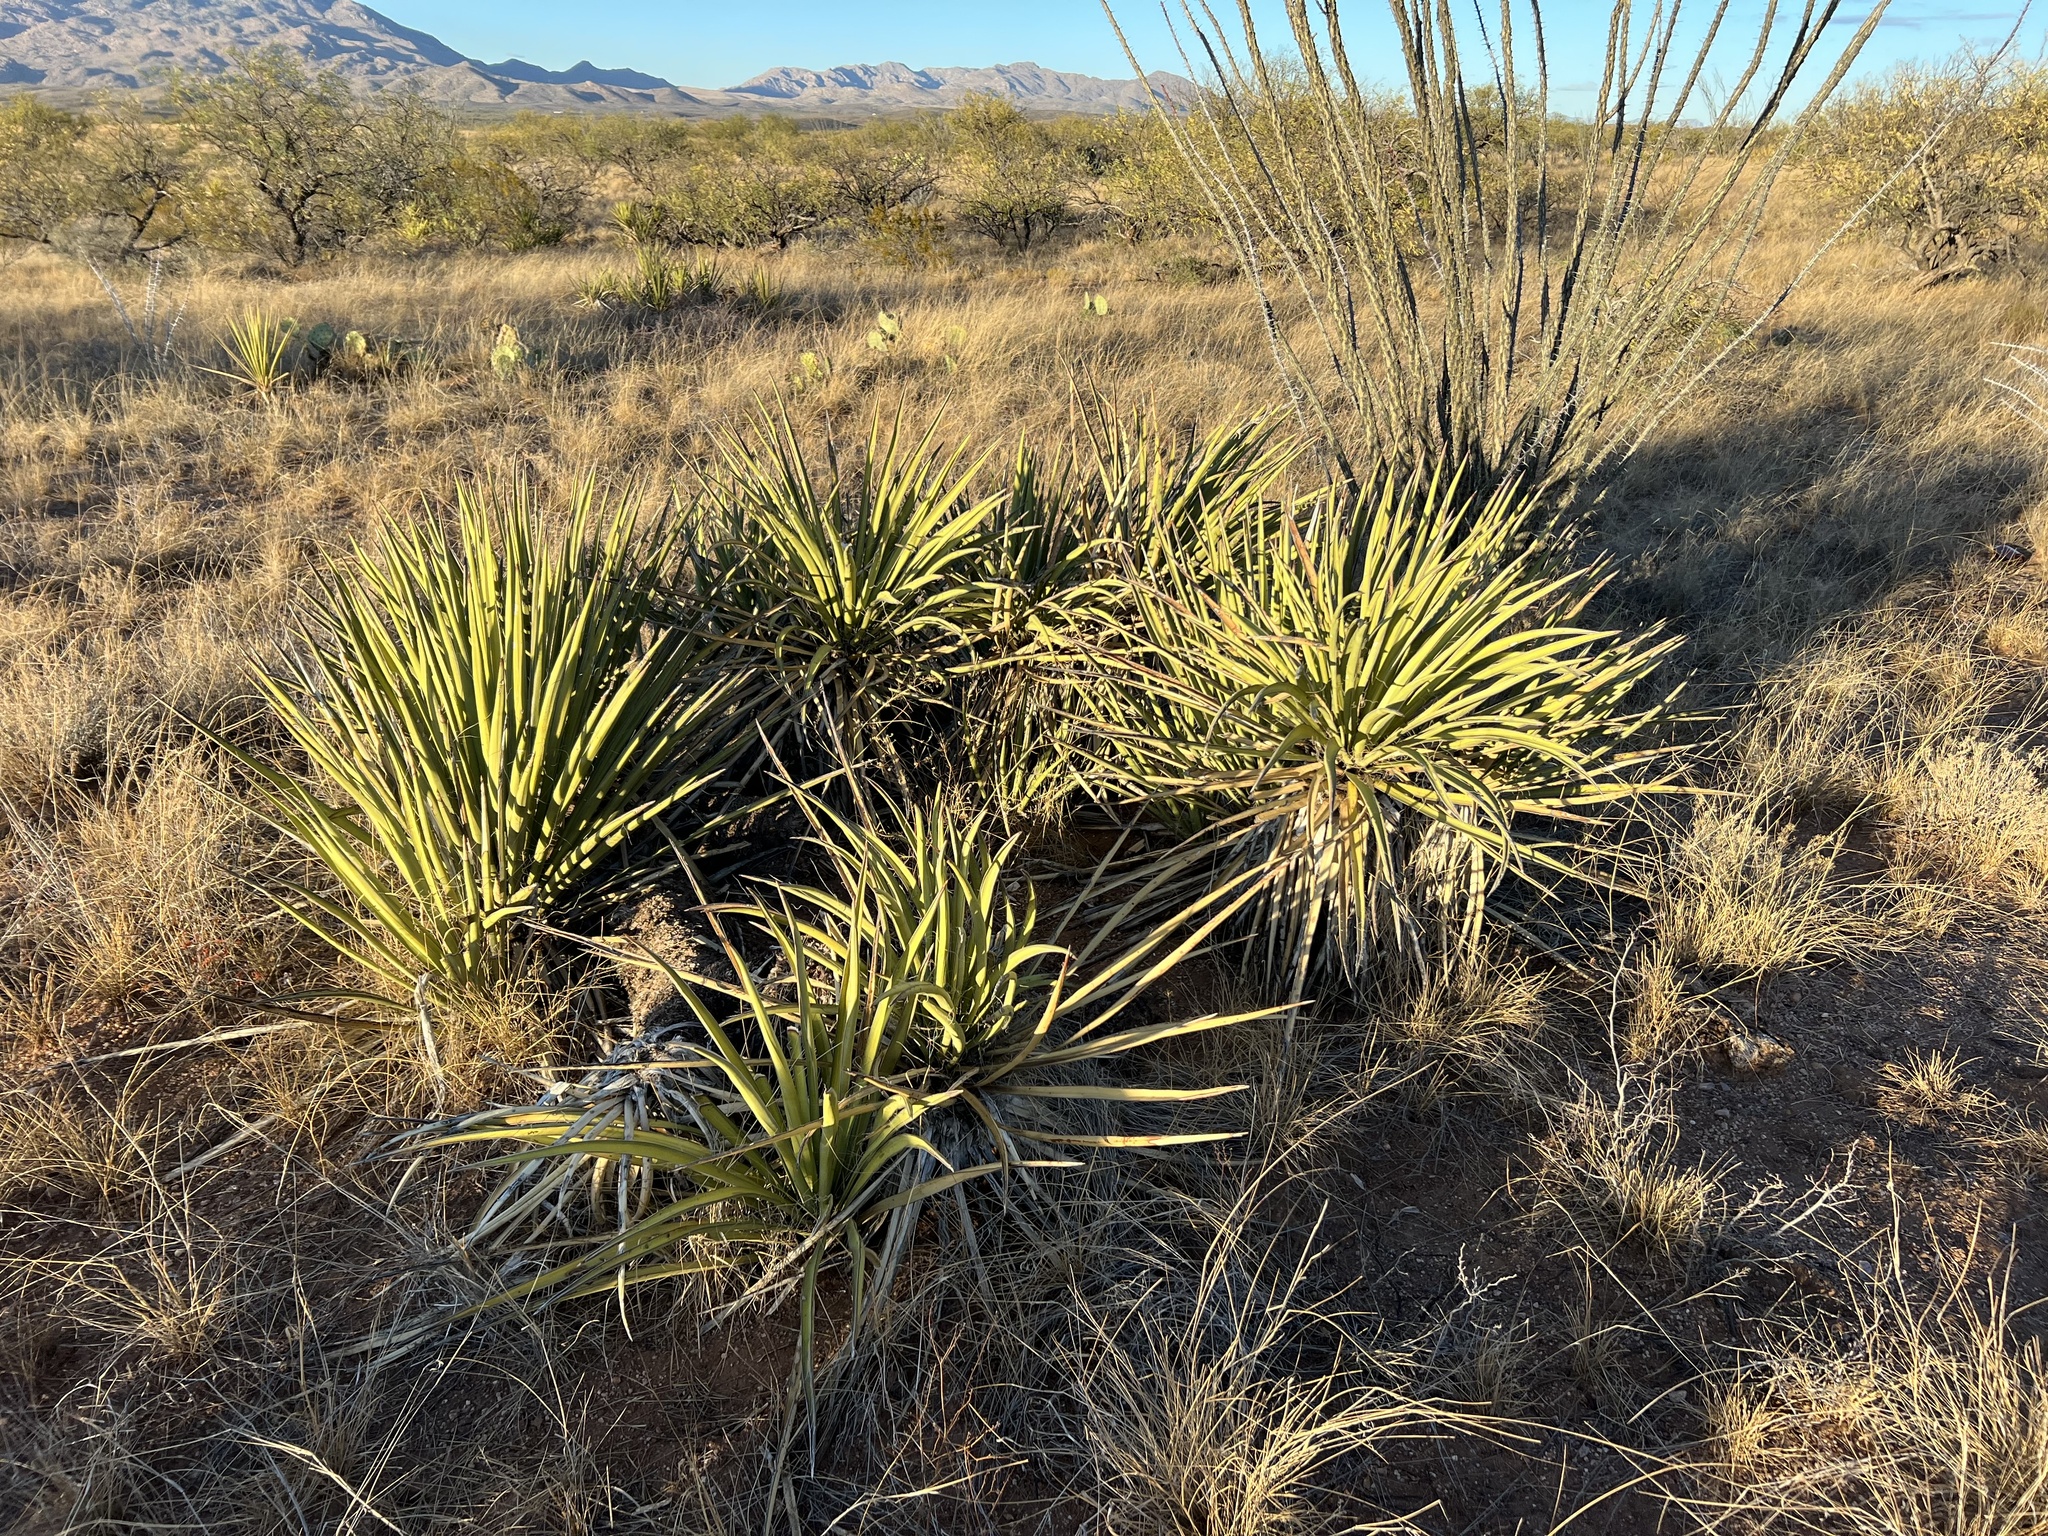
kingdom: Plantae
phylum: Tracheophyta
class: Liliopsida
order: Asparagales
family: Asparagaceae
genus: Yucca
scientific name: Yucca baccata
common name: Banana yucca
